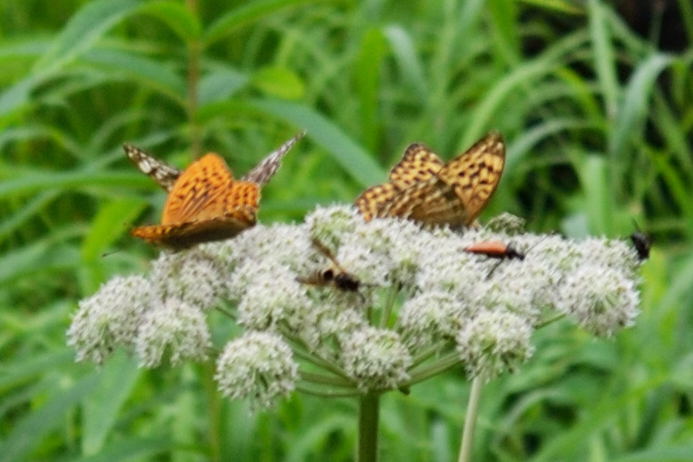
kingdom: Animalia
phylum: Arthropoda
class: Insecta
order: Lepidoptera
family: Nymphalidae
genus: Argynnis
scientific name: Argynnis paphia
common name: Silver-washed fritillary
